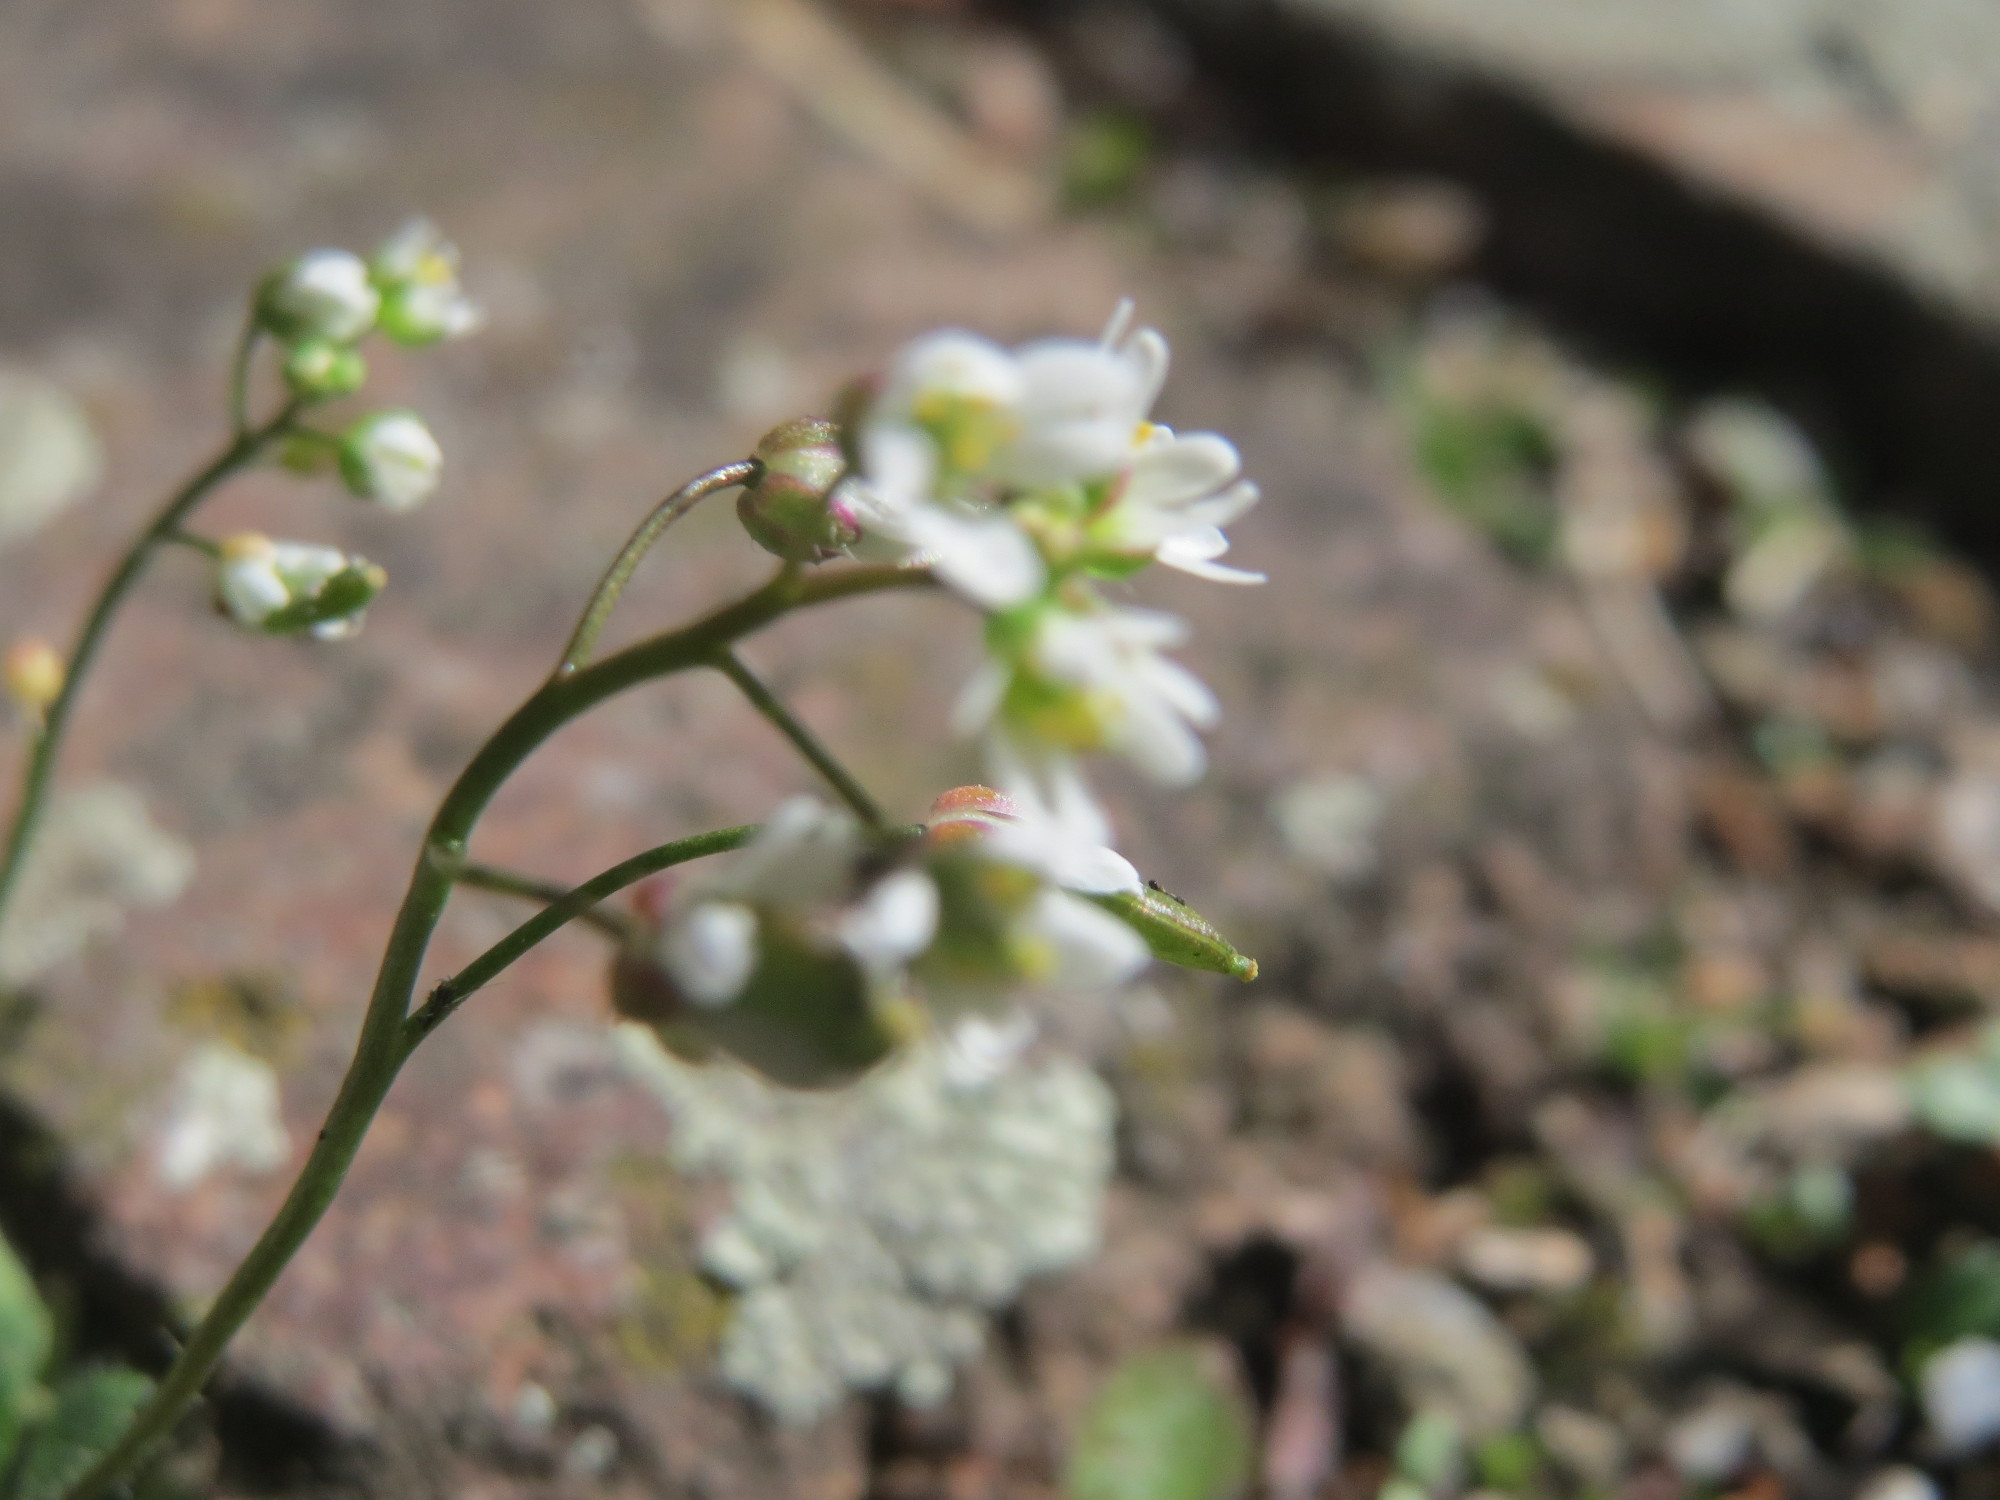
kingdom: Plantae
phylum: Tracheophyta
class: Magnoliopsida
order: Brassicales
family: Brassicaceae
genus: Draba
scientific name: Draba verna
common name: Spring draba
